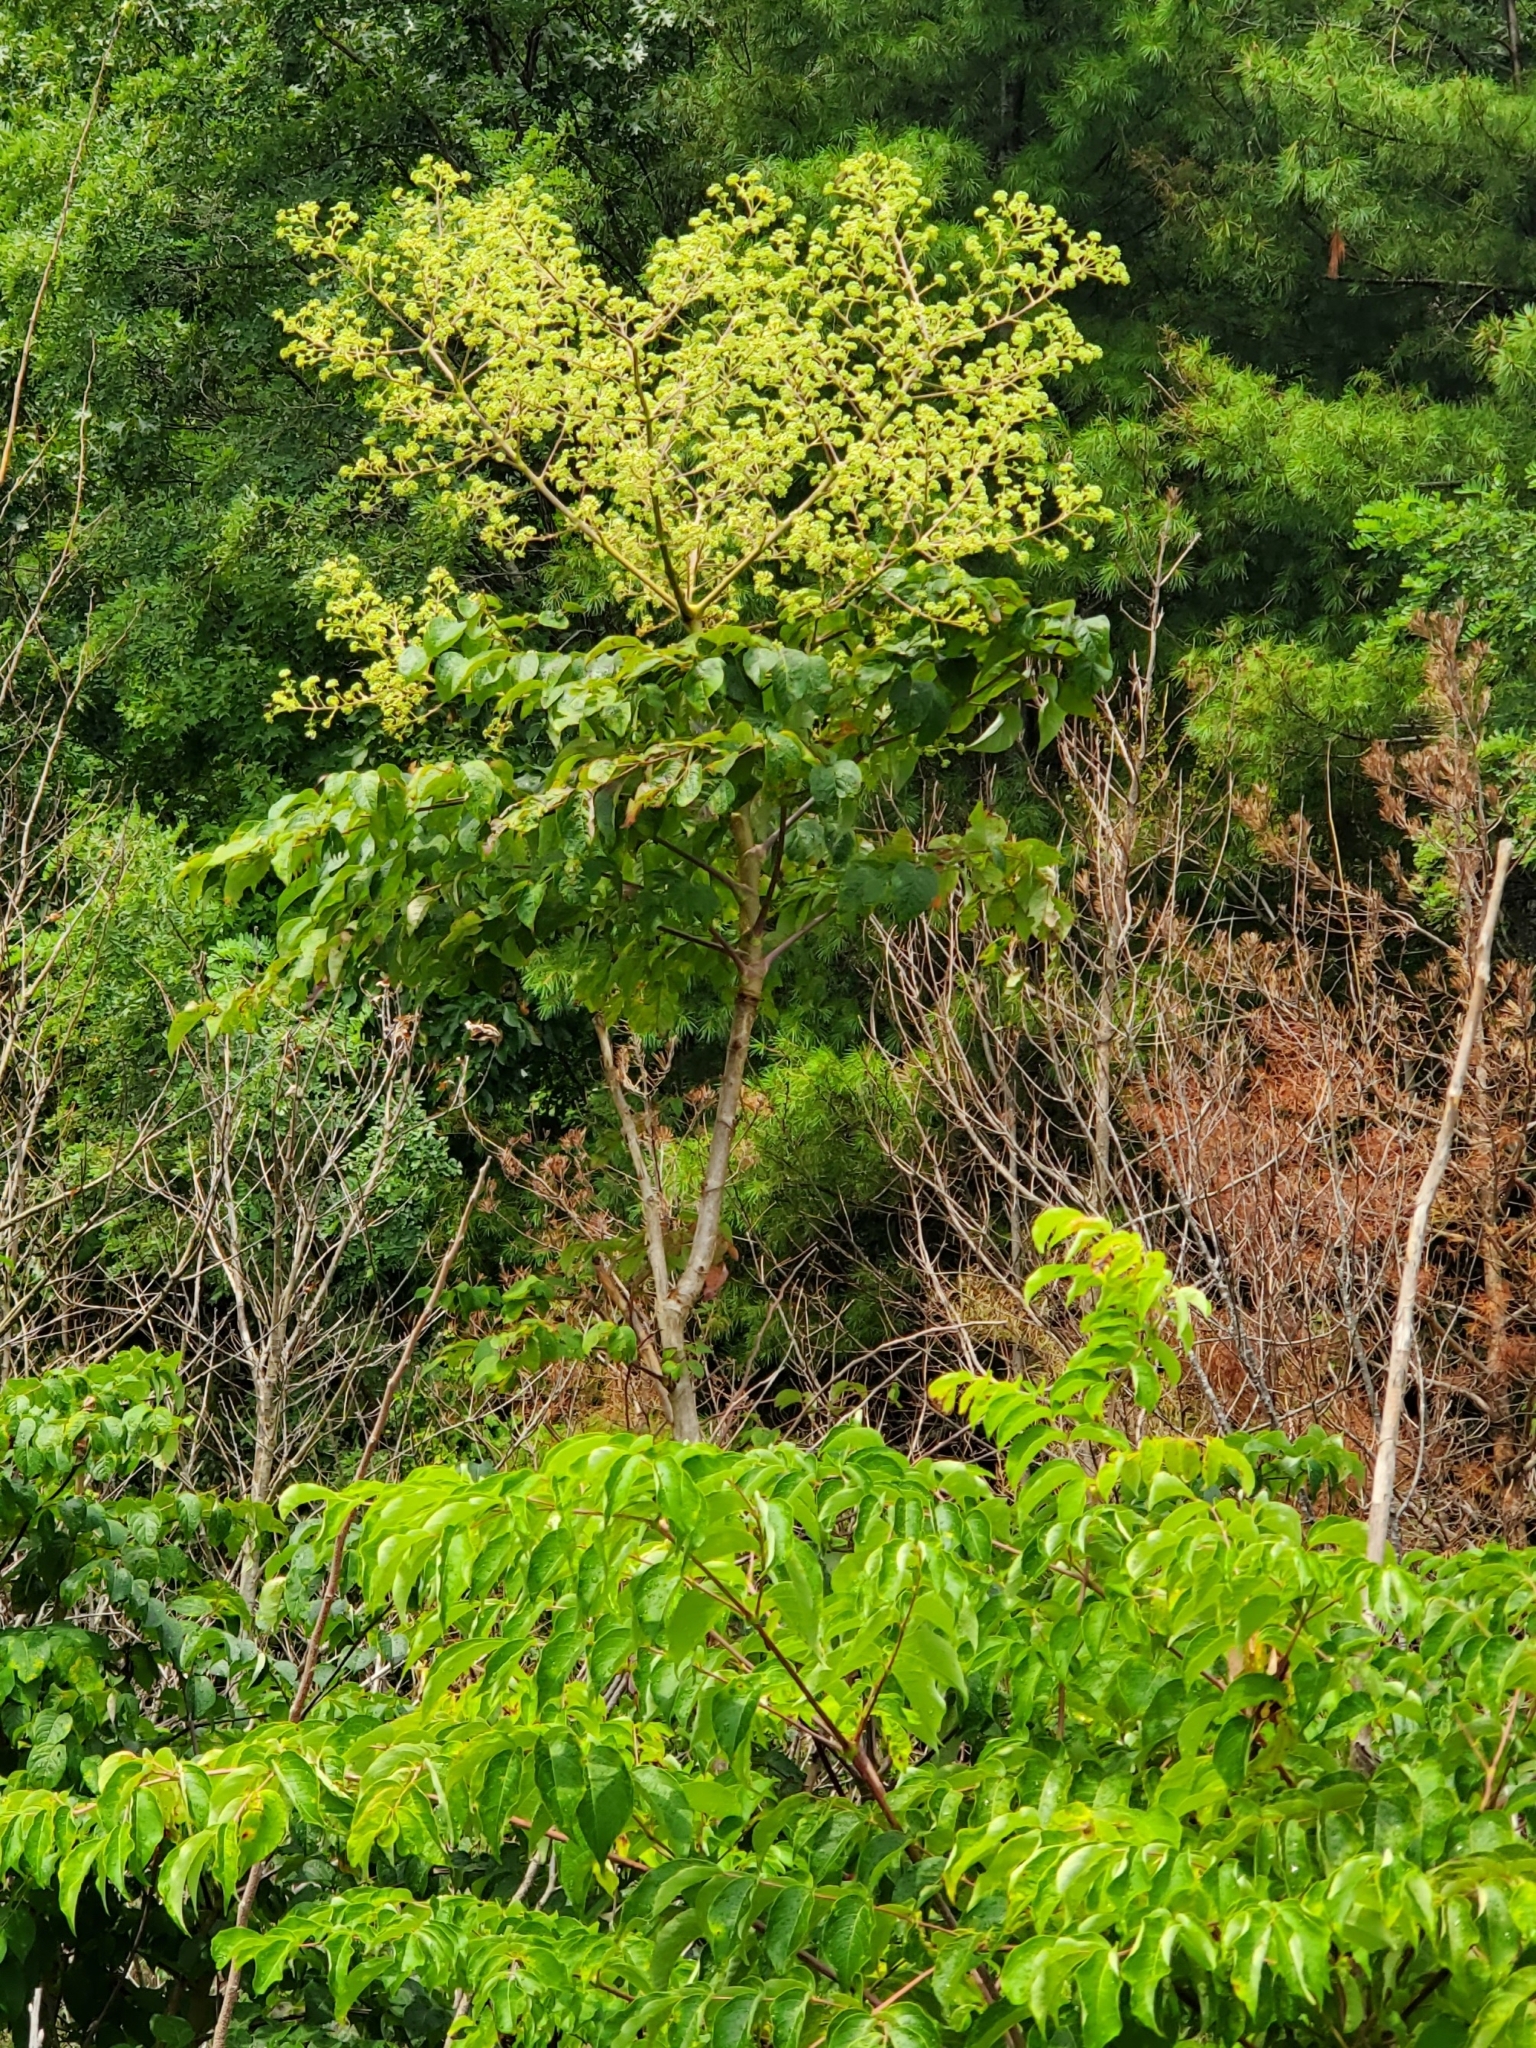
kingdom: Plantae
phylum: Tracheophyta
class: Magnoliopsida
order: Apiales
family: Araliaceae
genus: Aralia
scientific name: Aralia spinosa
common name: Hercules'-club
